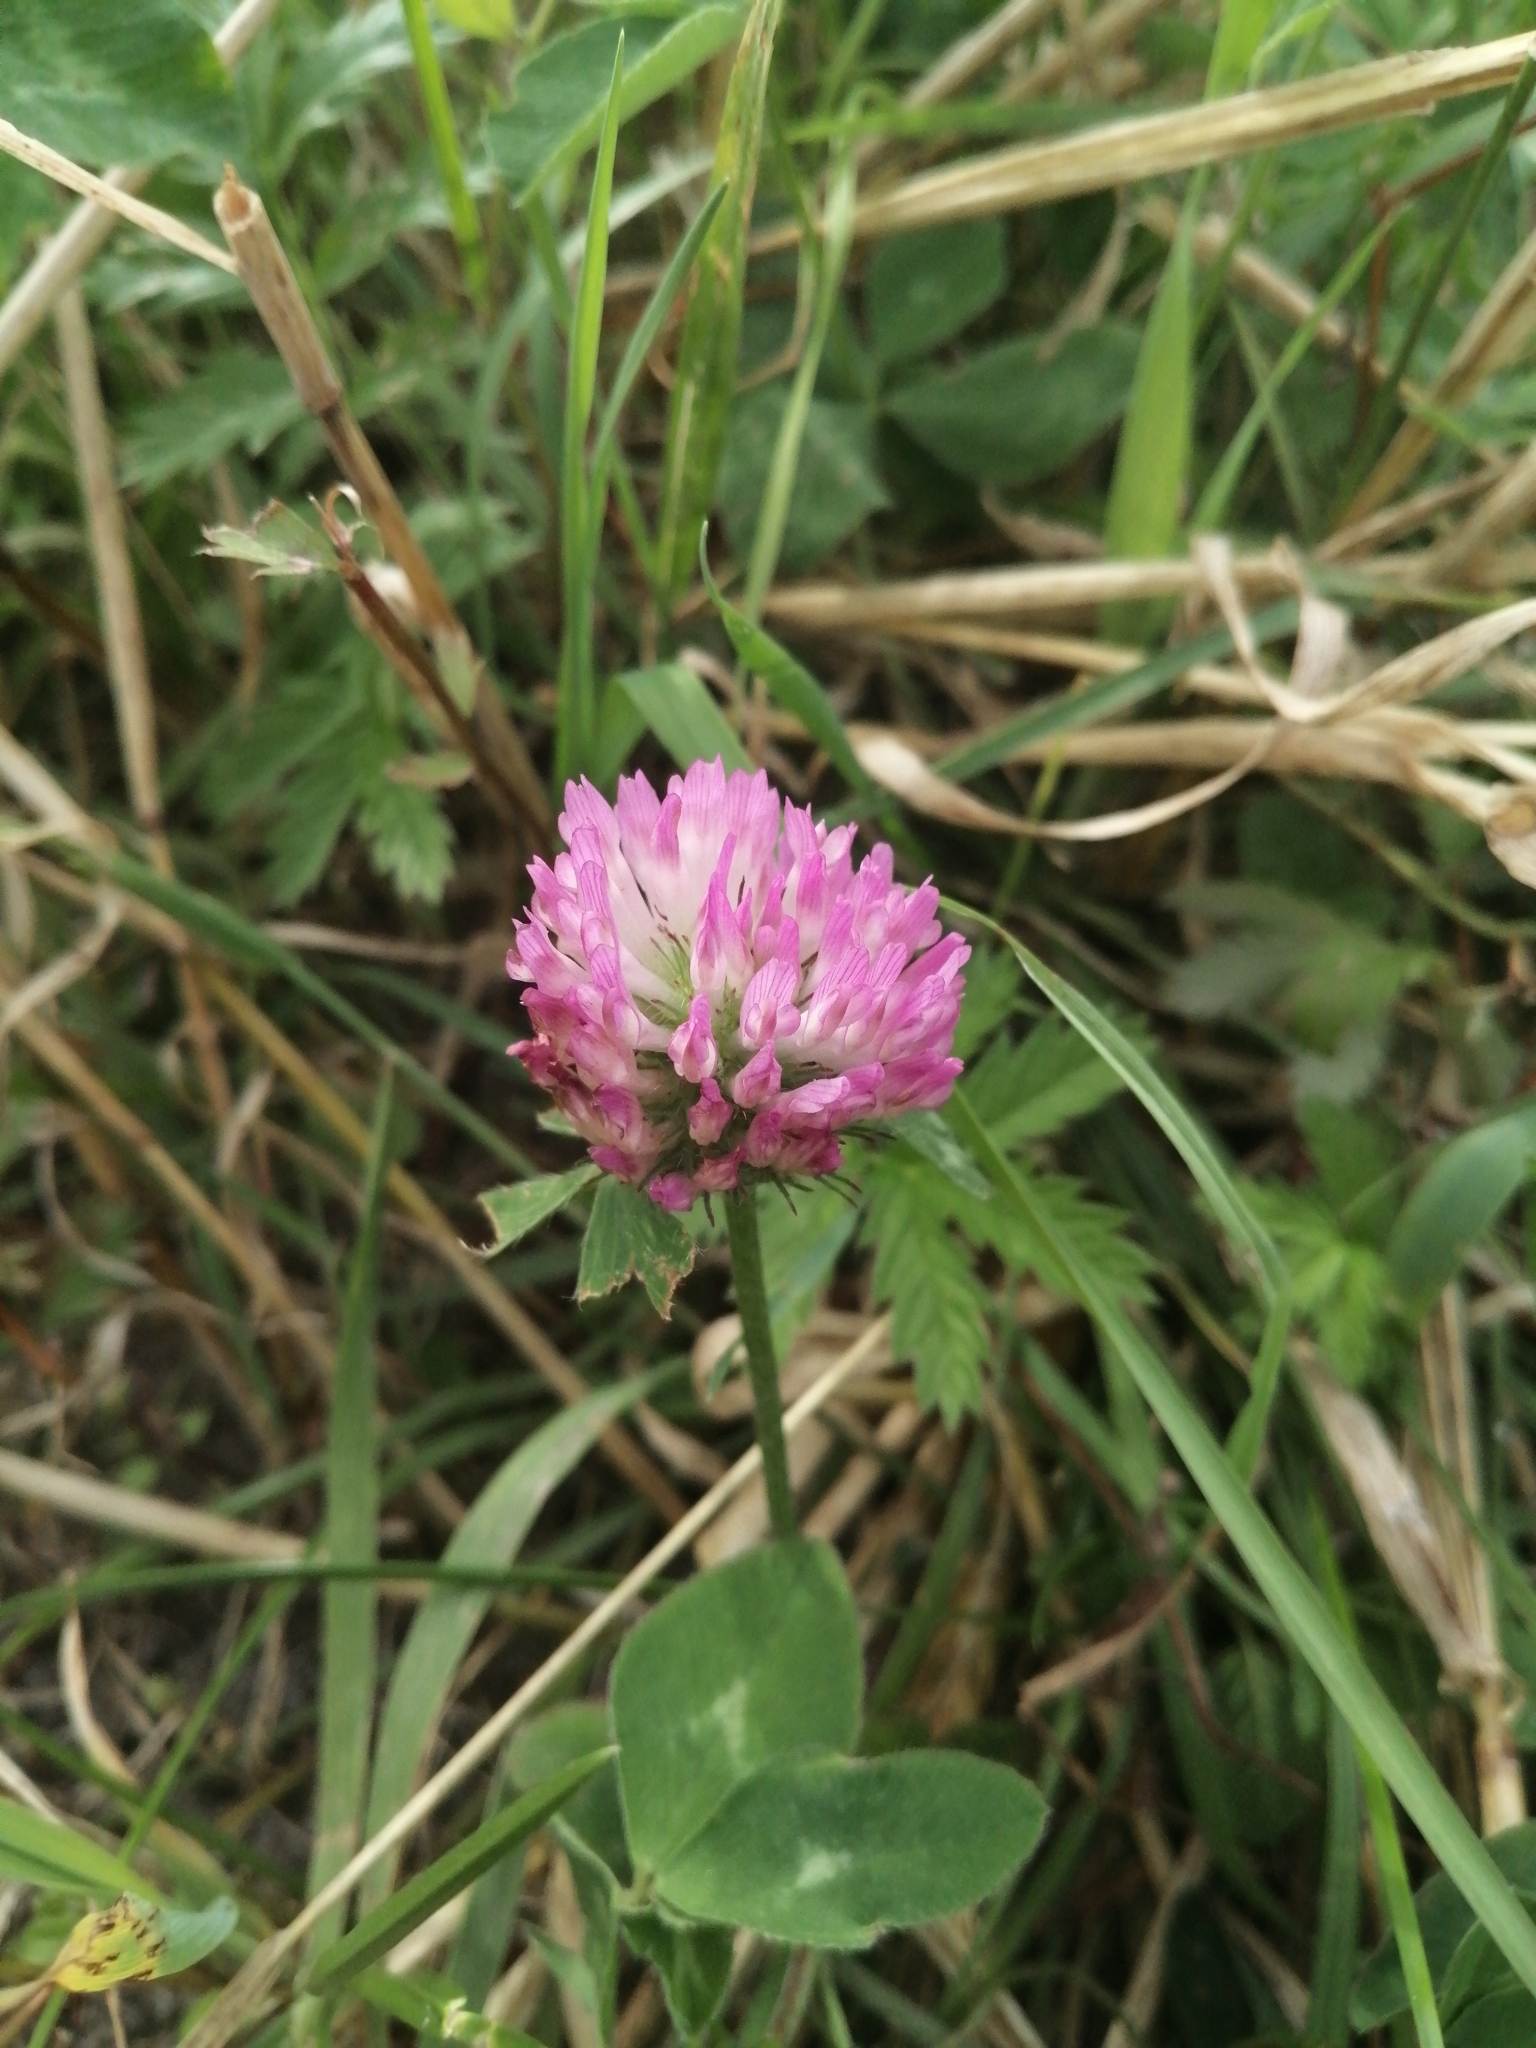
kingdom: Plantae
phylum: Tracheophyta
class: Magnoliopsida
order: Fabales
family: Fabaceae
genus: Trifolium
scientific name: Trifolium pratense
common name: Red clover
